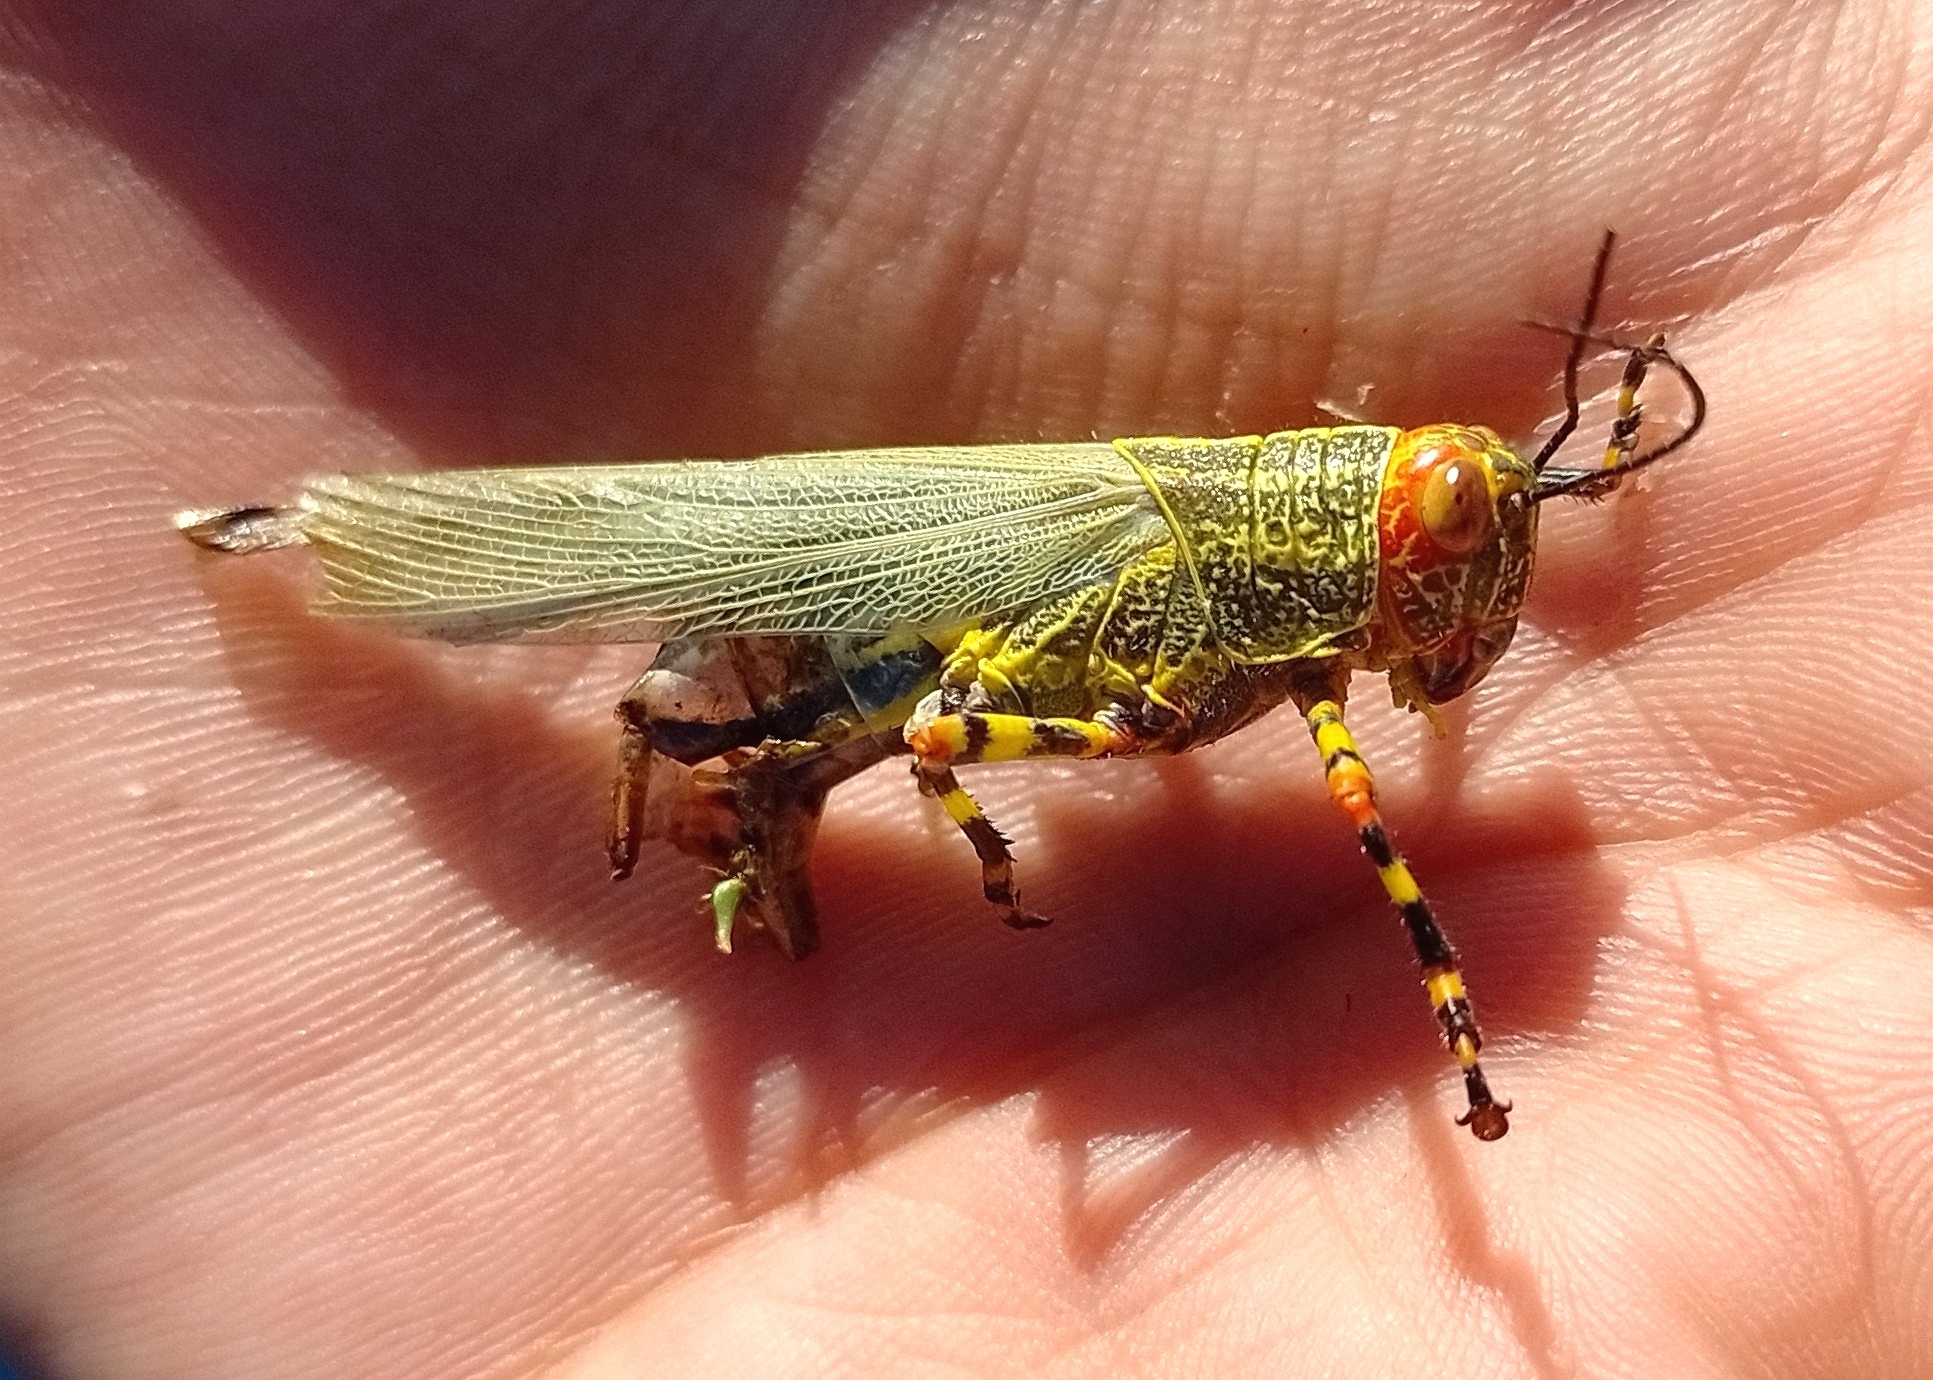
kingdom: Animalia
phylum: Arthropoda
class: Insecta
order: Orthoptera
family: Romaleidae
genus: Zoniopoda
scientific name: Zoniopoda tarsata
